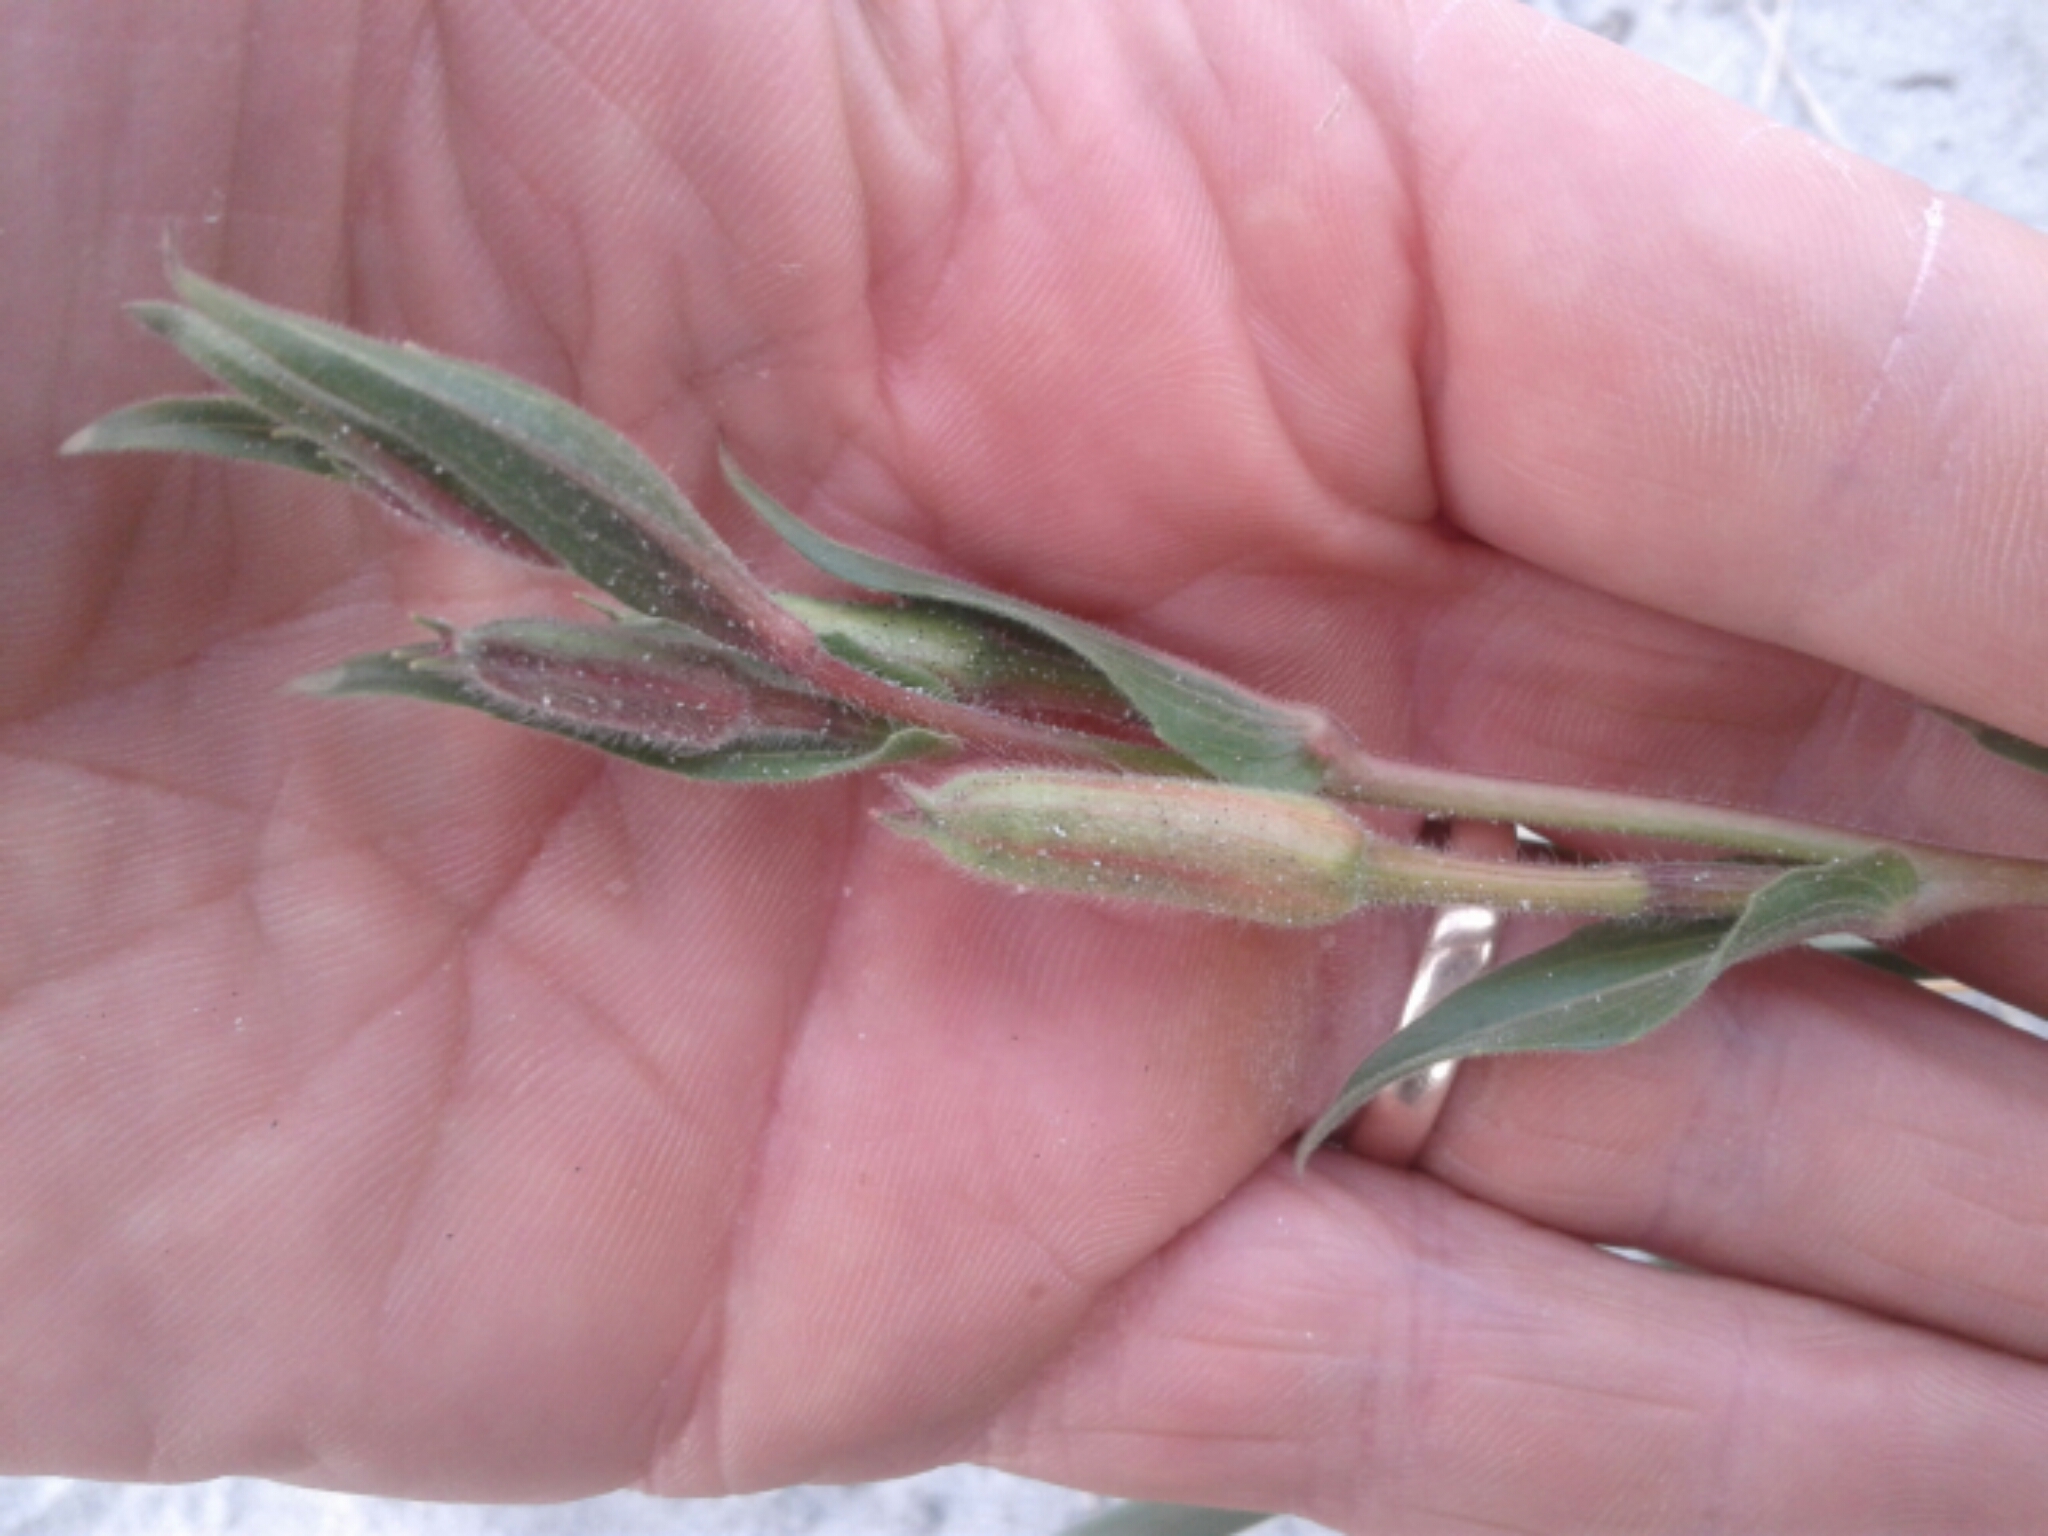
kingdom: Plantae
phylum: Tracheophyta
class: Magnoliopsida
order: Myrtales
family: Onagraceae
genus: Oenothera
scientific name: Oenothera stricta
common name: Fragrant evening-primrose
